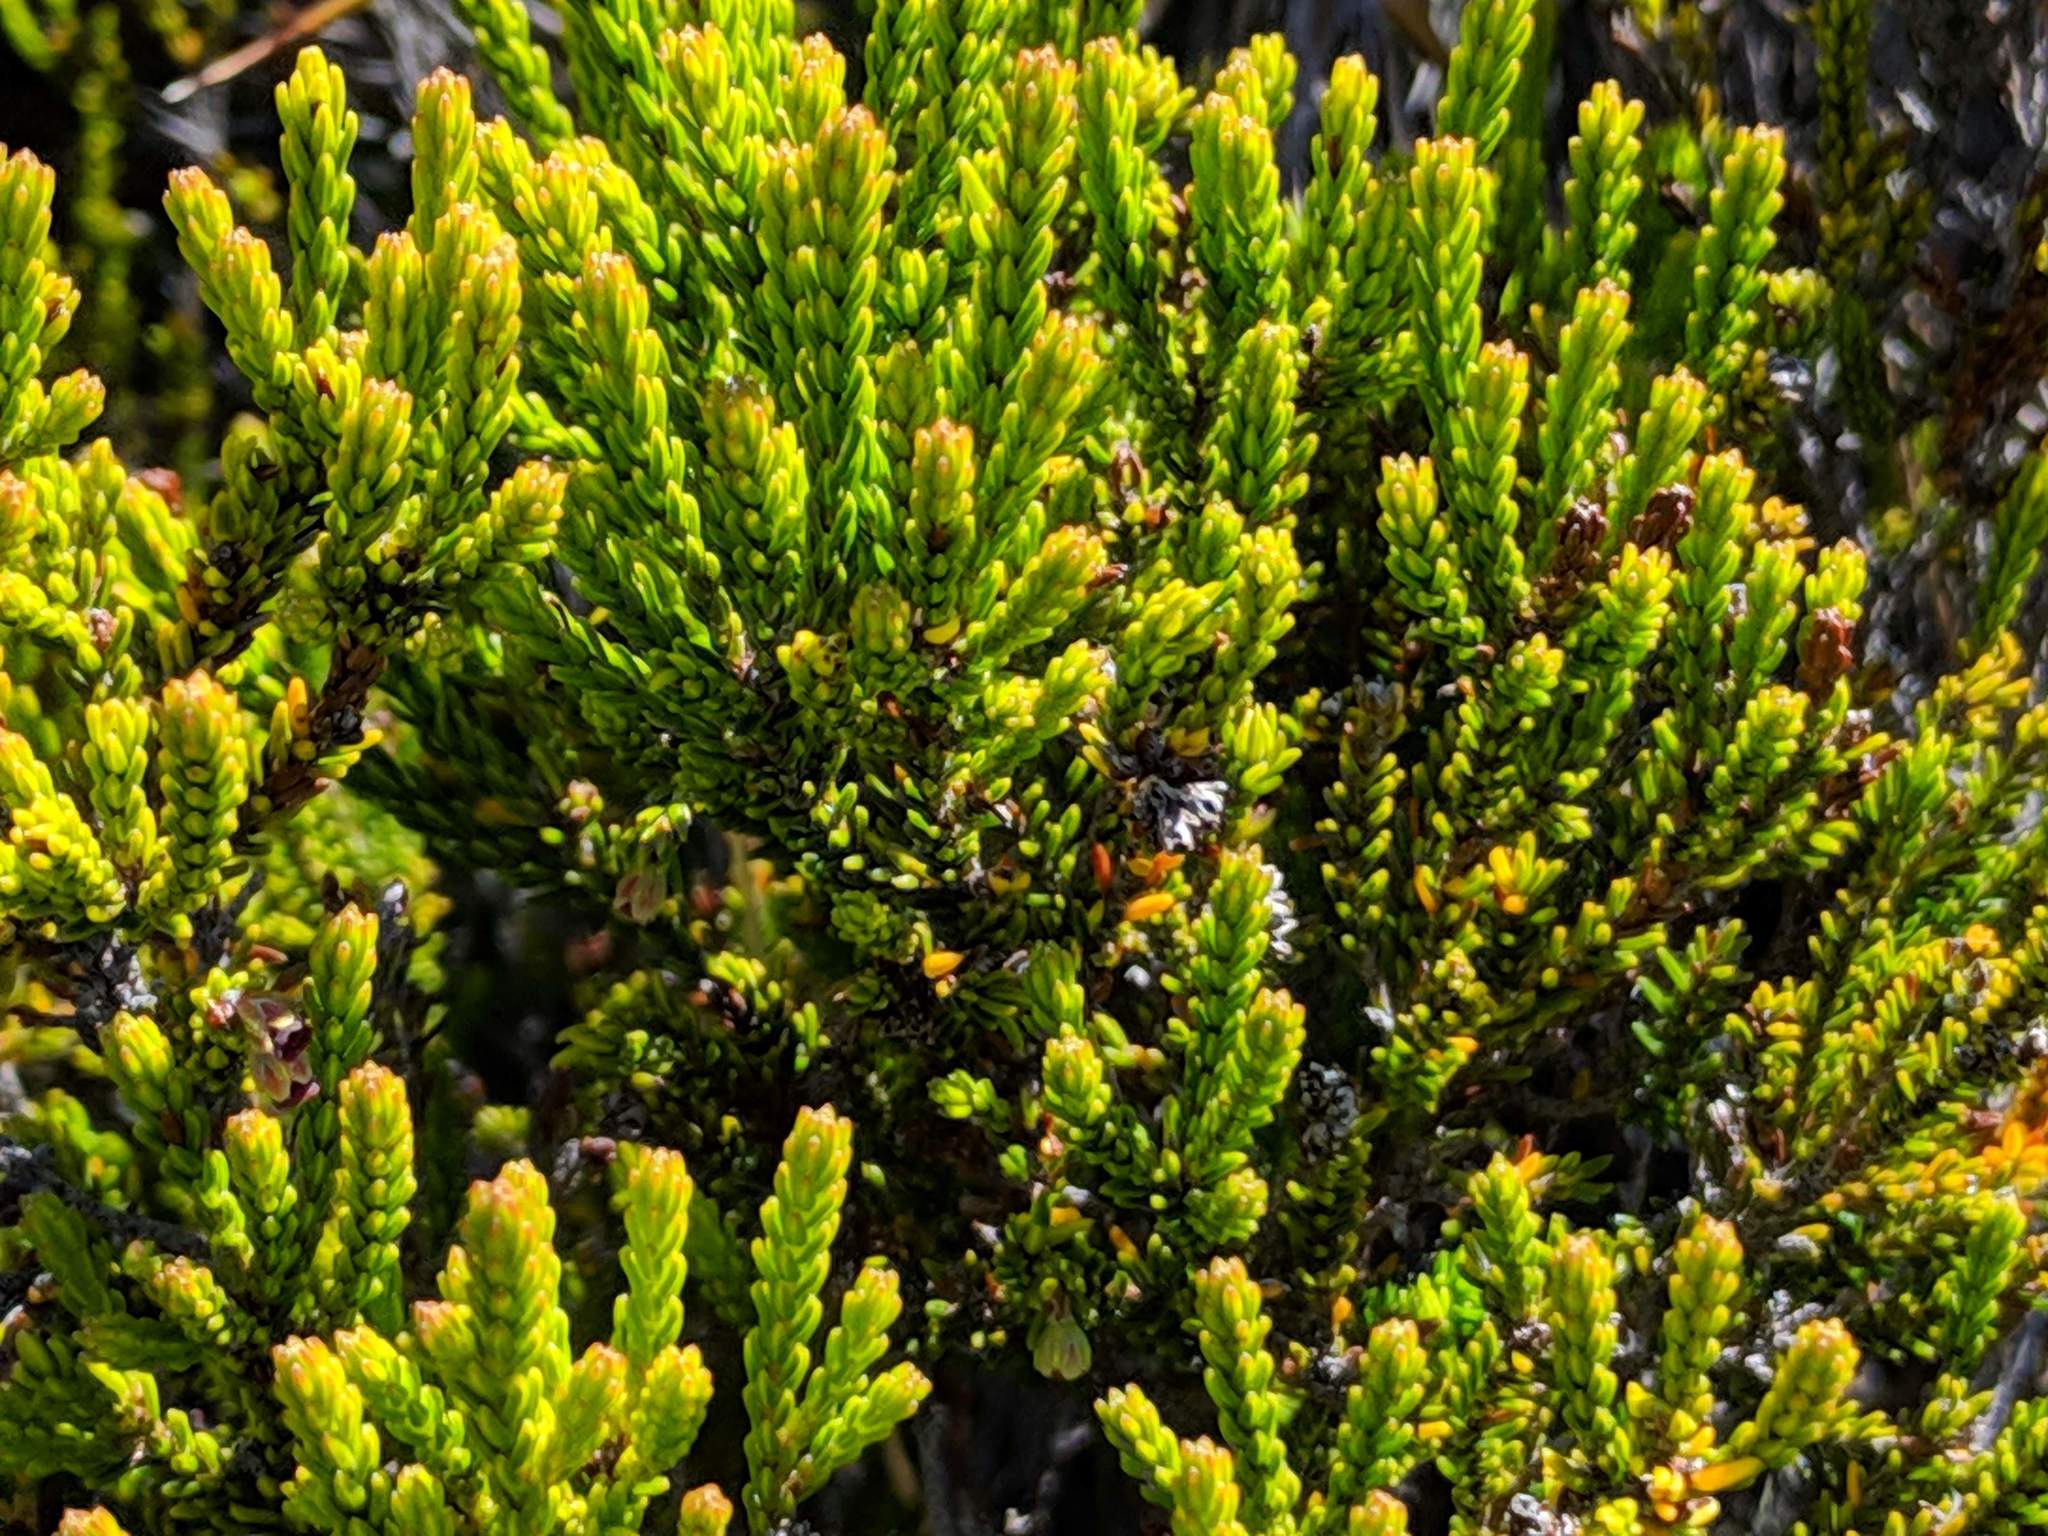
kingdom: Plantae
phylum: Tracheophyta
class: Magnoliopsida
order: Ericales
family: Ericaceae
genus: Erica
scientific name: Erica reunionensis
